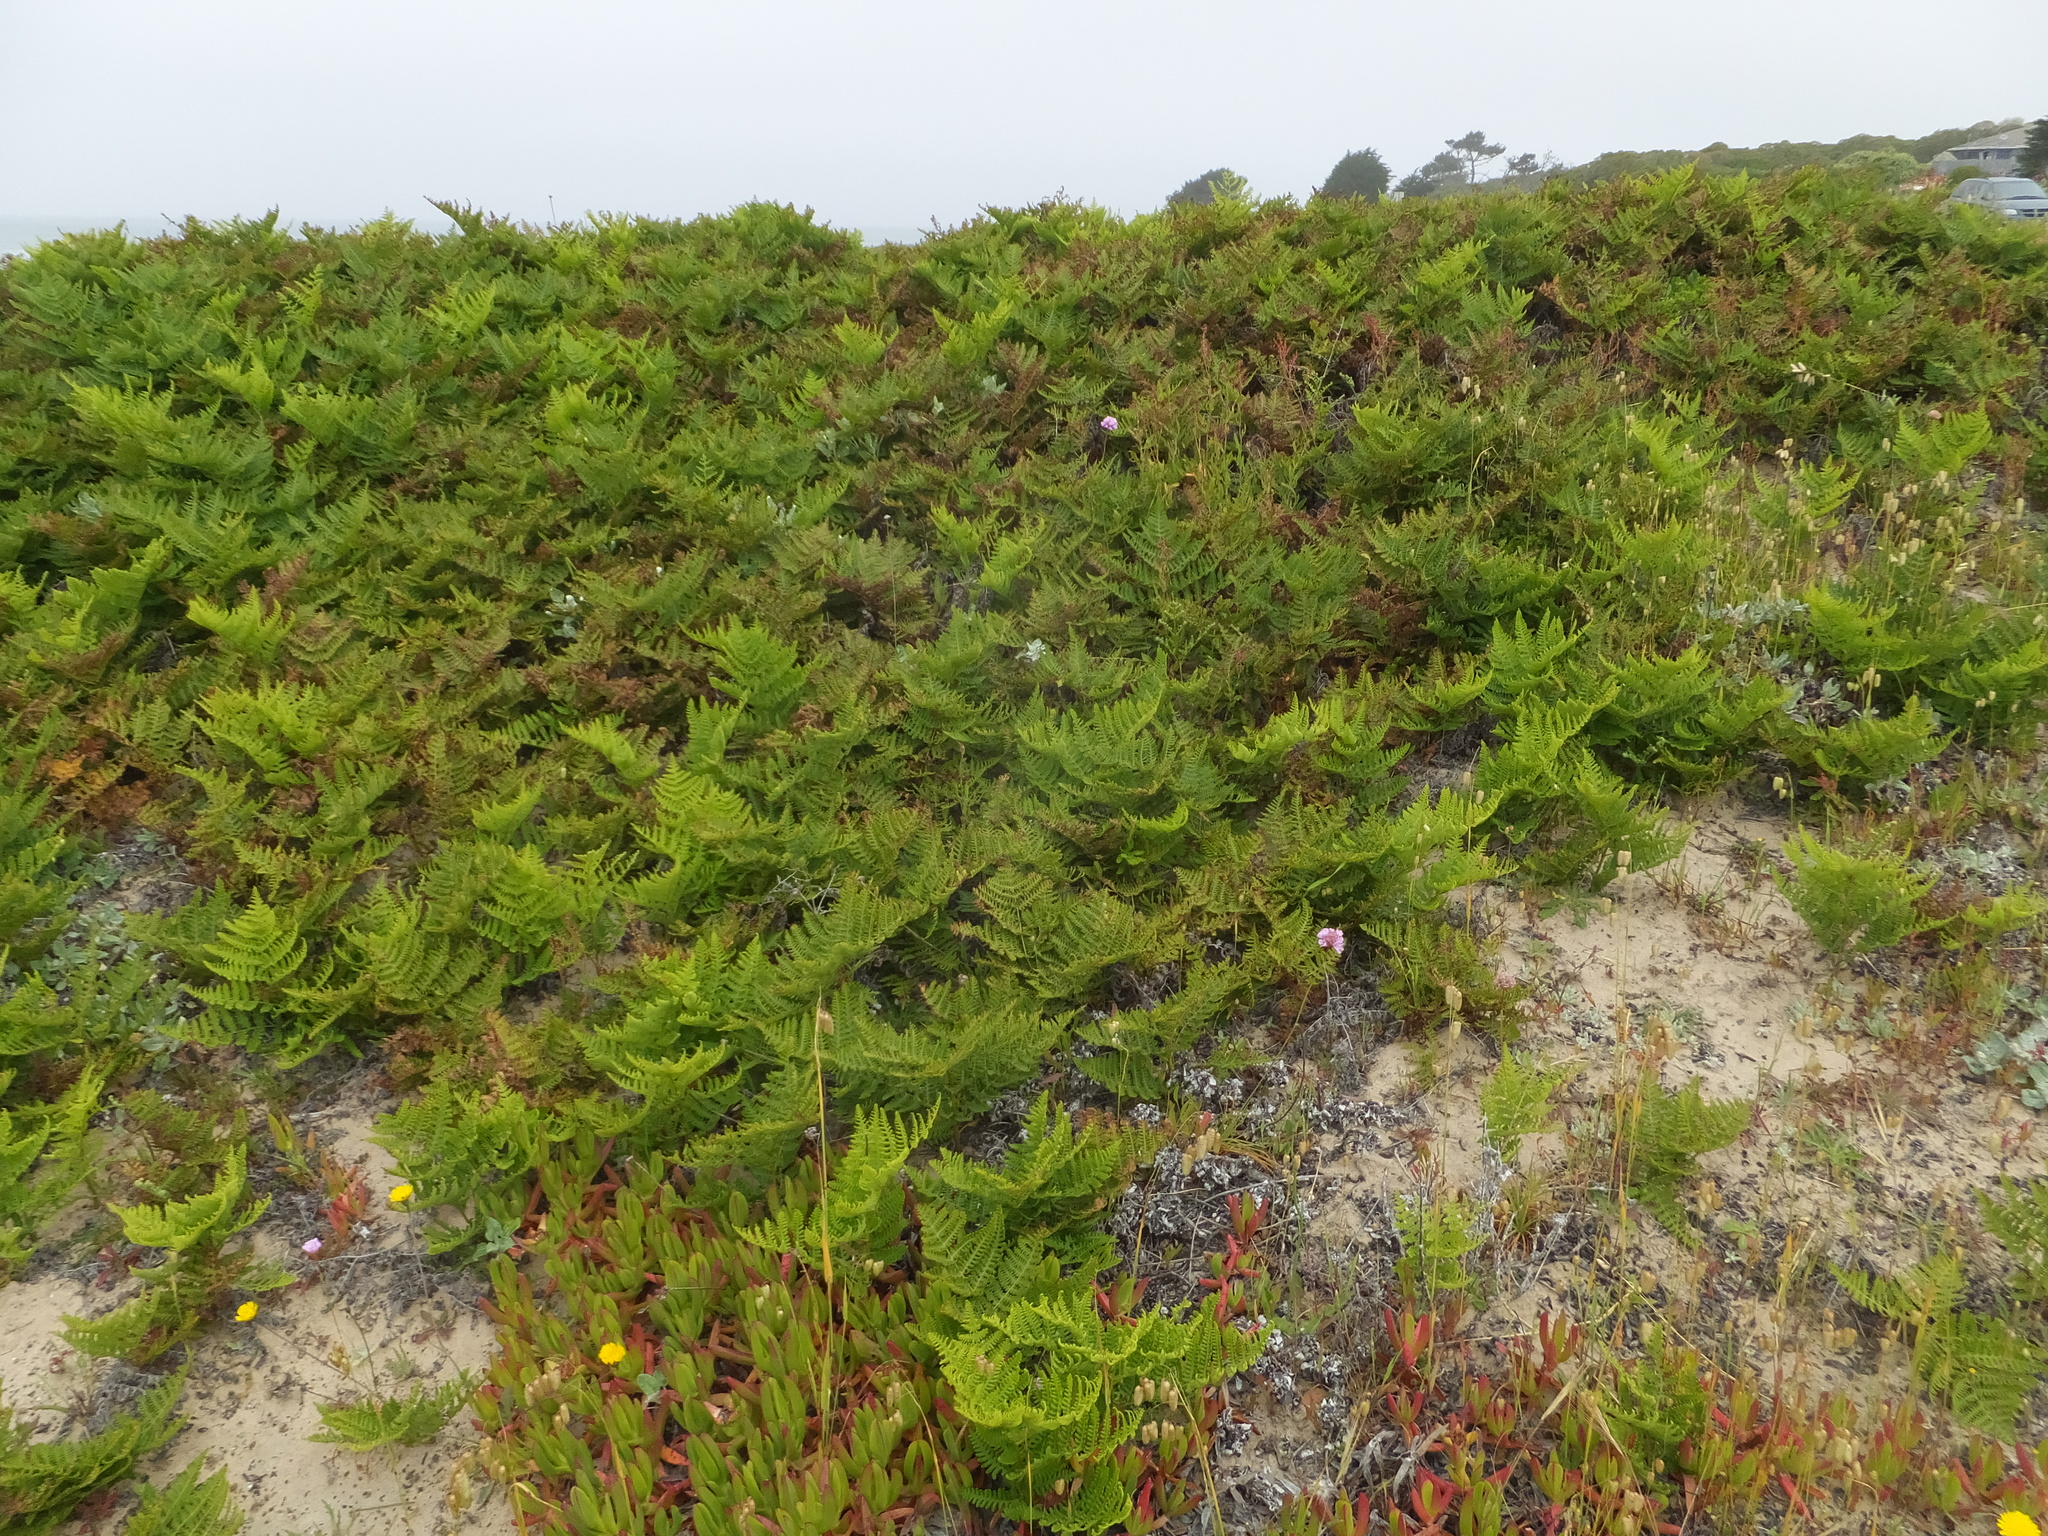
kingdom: Plantae
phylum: Tracheophyta
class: Polypodiopsida
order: Polypodiales
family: Dennstaedtiaceae
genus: Pteridium
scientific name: Pteridium aquilinum
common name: Bracken
